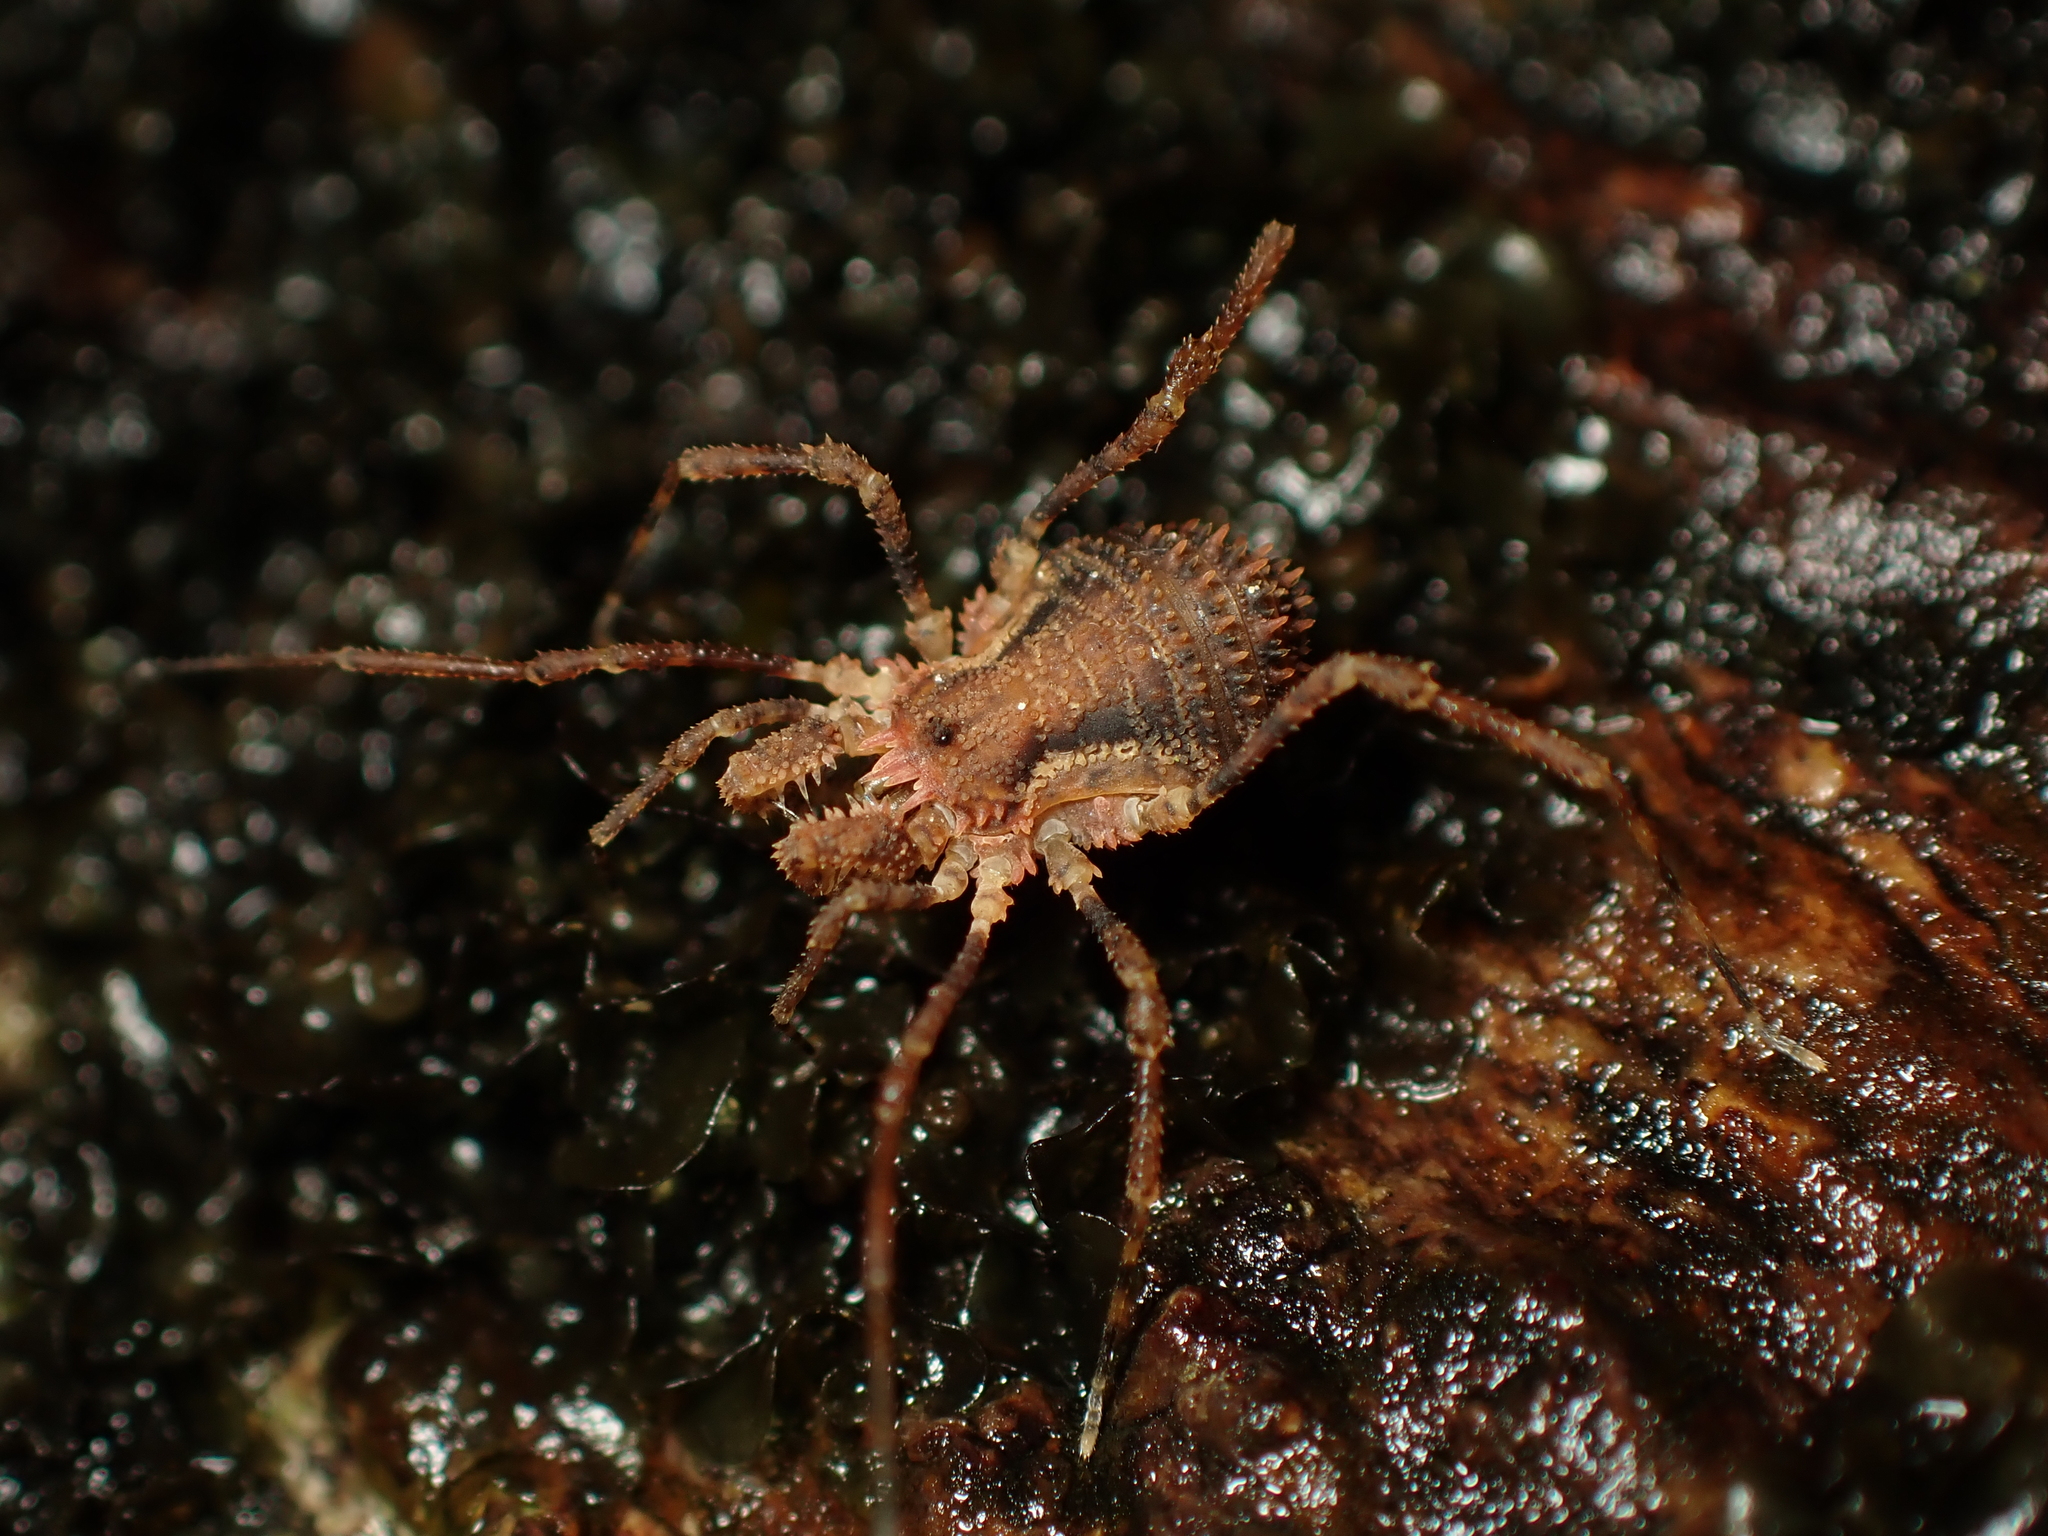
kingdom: Animalia
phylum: Arthropoda
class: Arachnida
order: Opiliones
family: Triaenonychidae
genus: Algidia
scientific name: Algidia cuspidata
